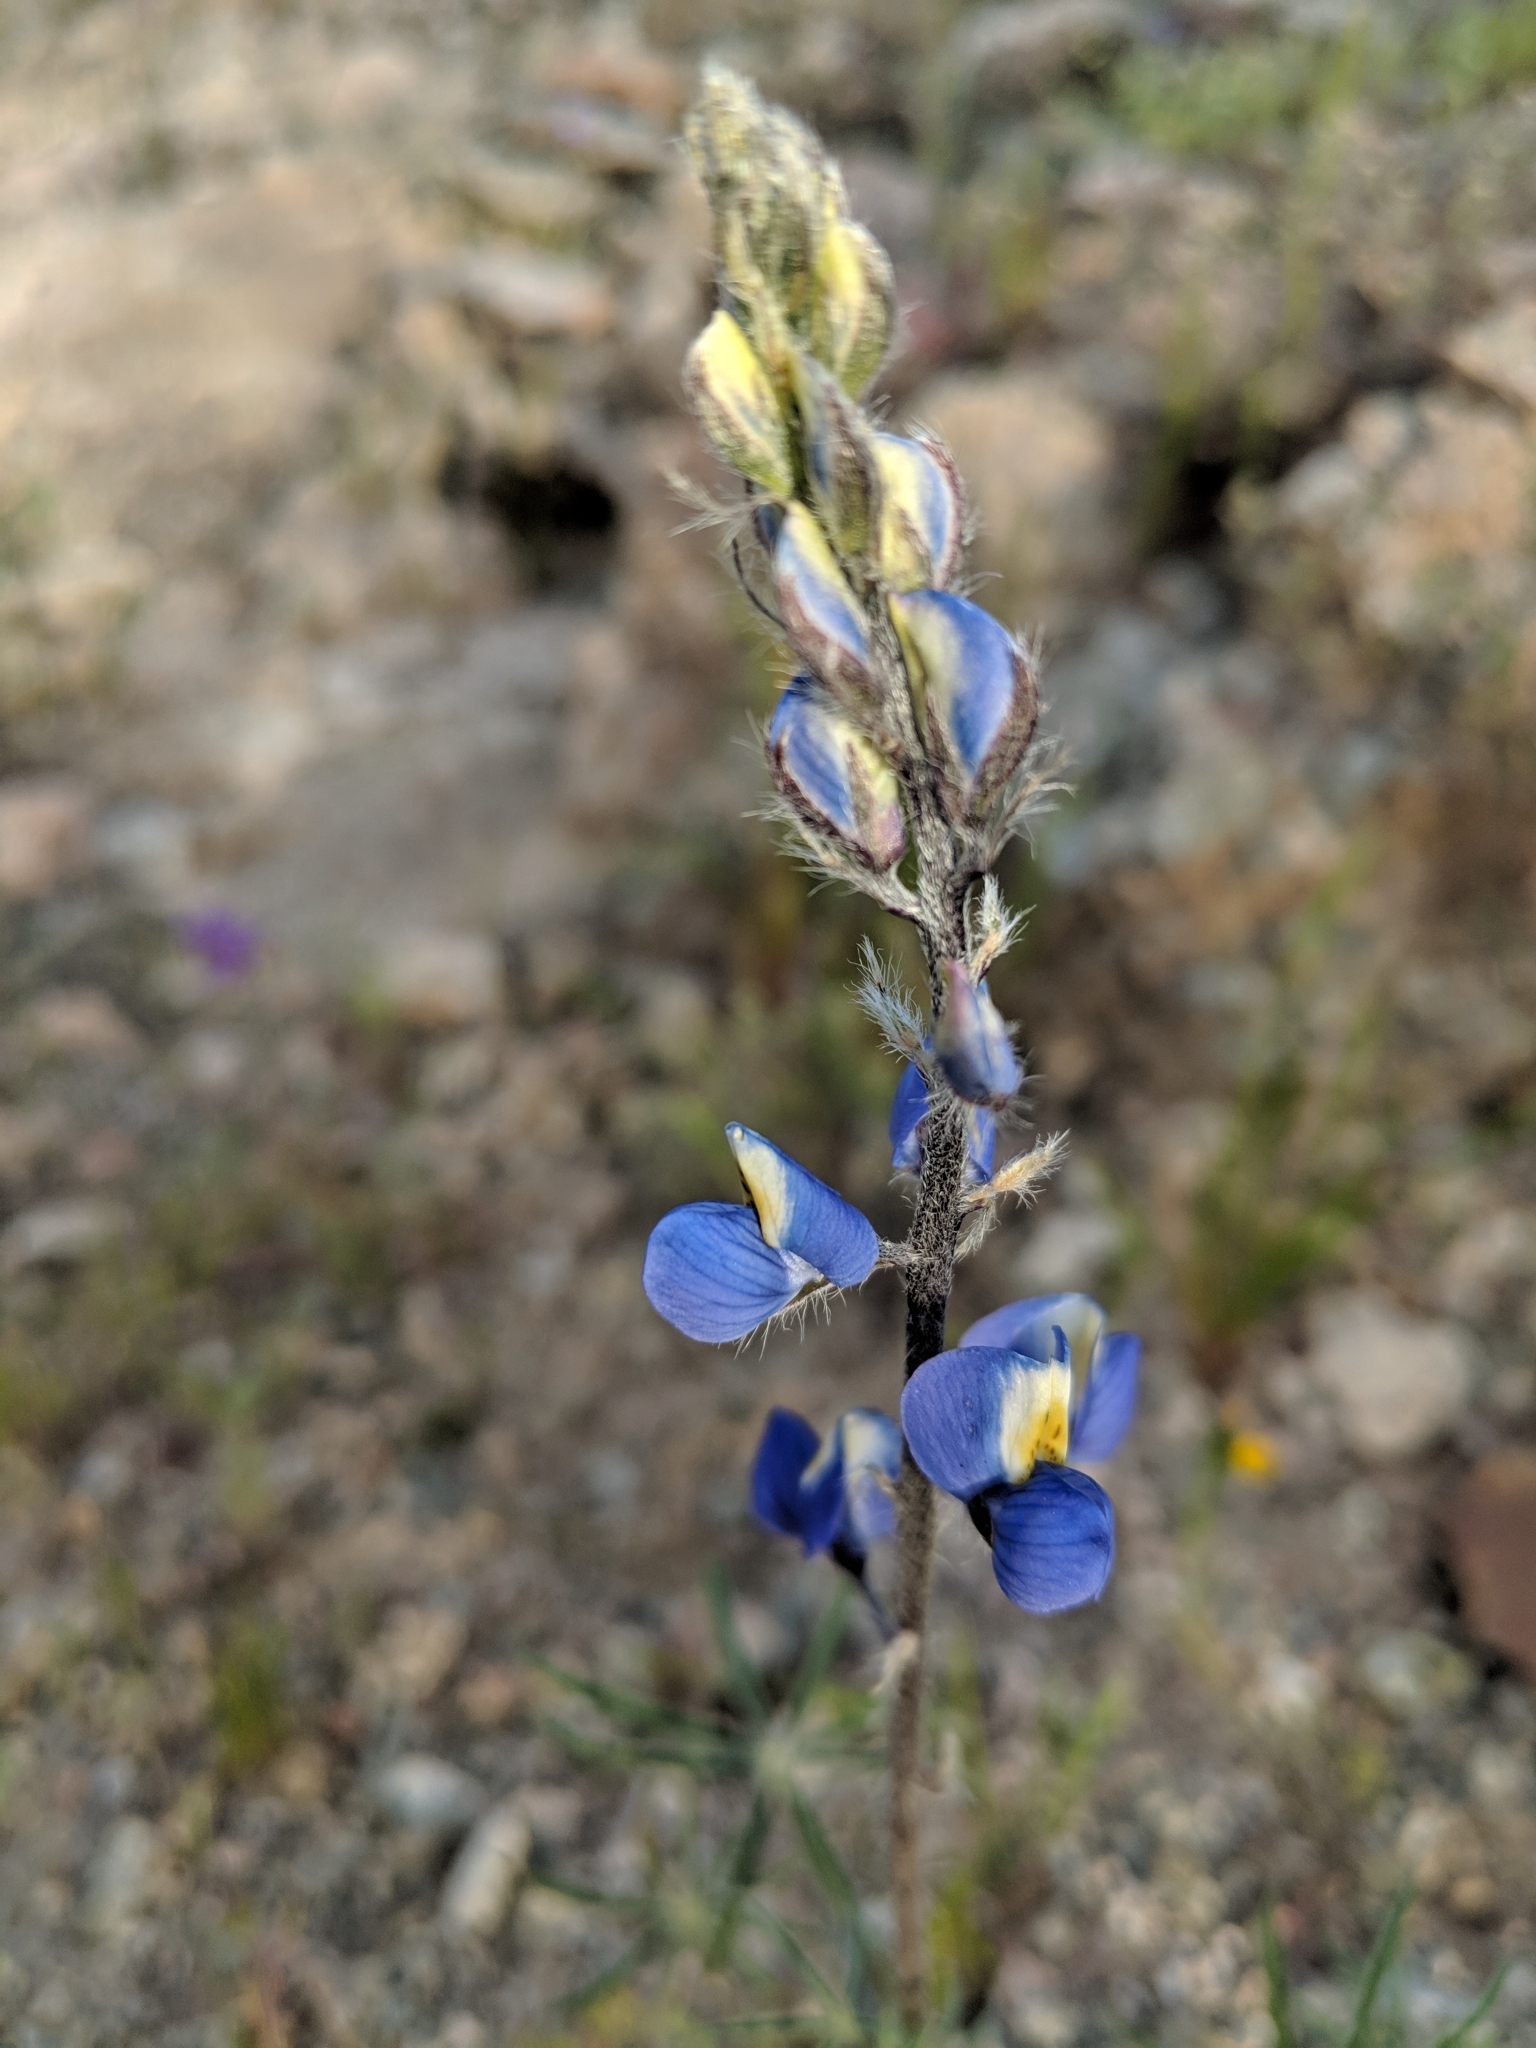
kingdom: Plantae
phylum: Tracheophyta
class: Magnoliopsida
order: Fabales
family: Fabaceae
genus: Lupinus
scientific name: Lupinus sparsiflorus
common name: Coulter's lupine
